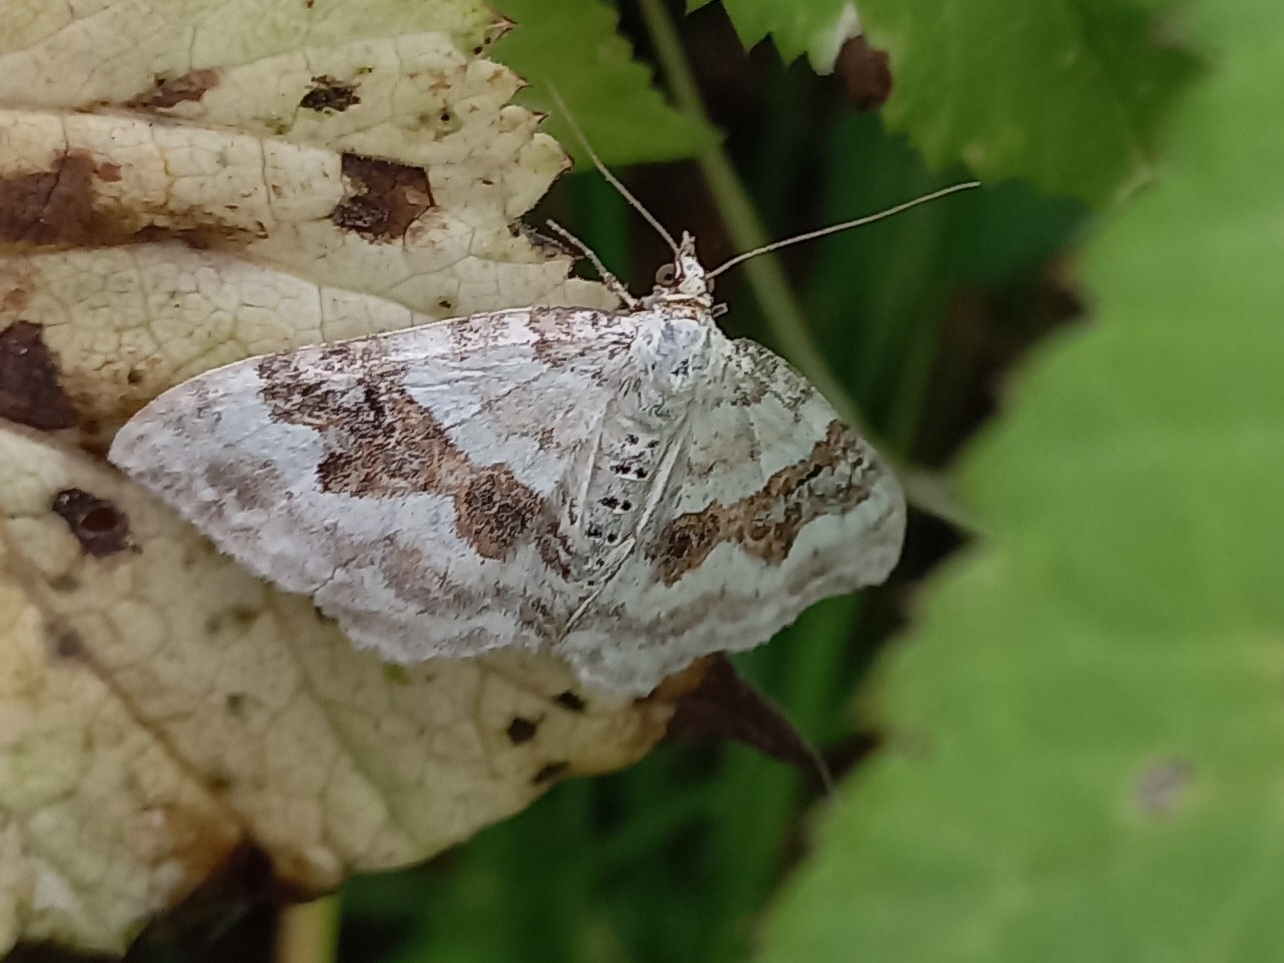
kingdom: Animalia
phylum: Arthropoda
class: Insecta
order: Lepidoptera
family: Geometridae
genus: Xanthorhoe
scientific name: Xanthorhoe montanata
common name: Silver-ground carpet
